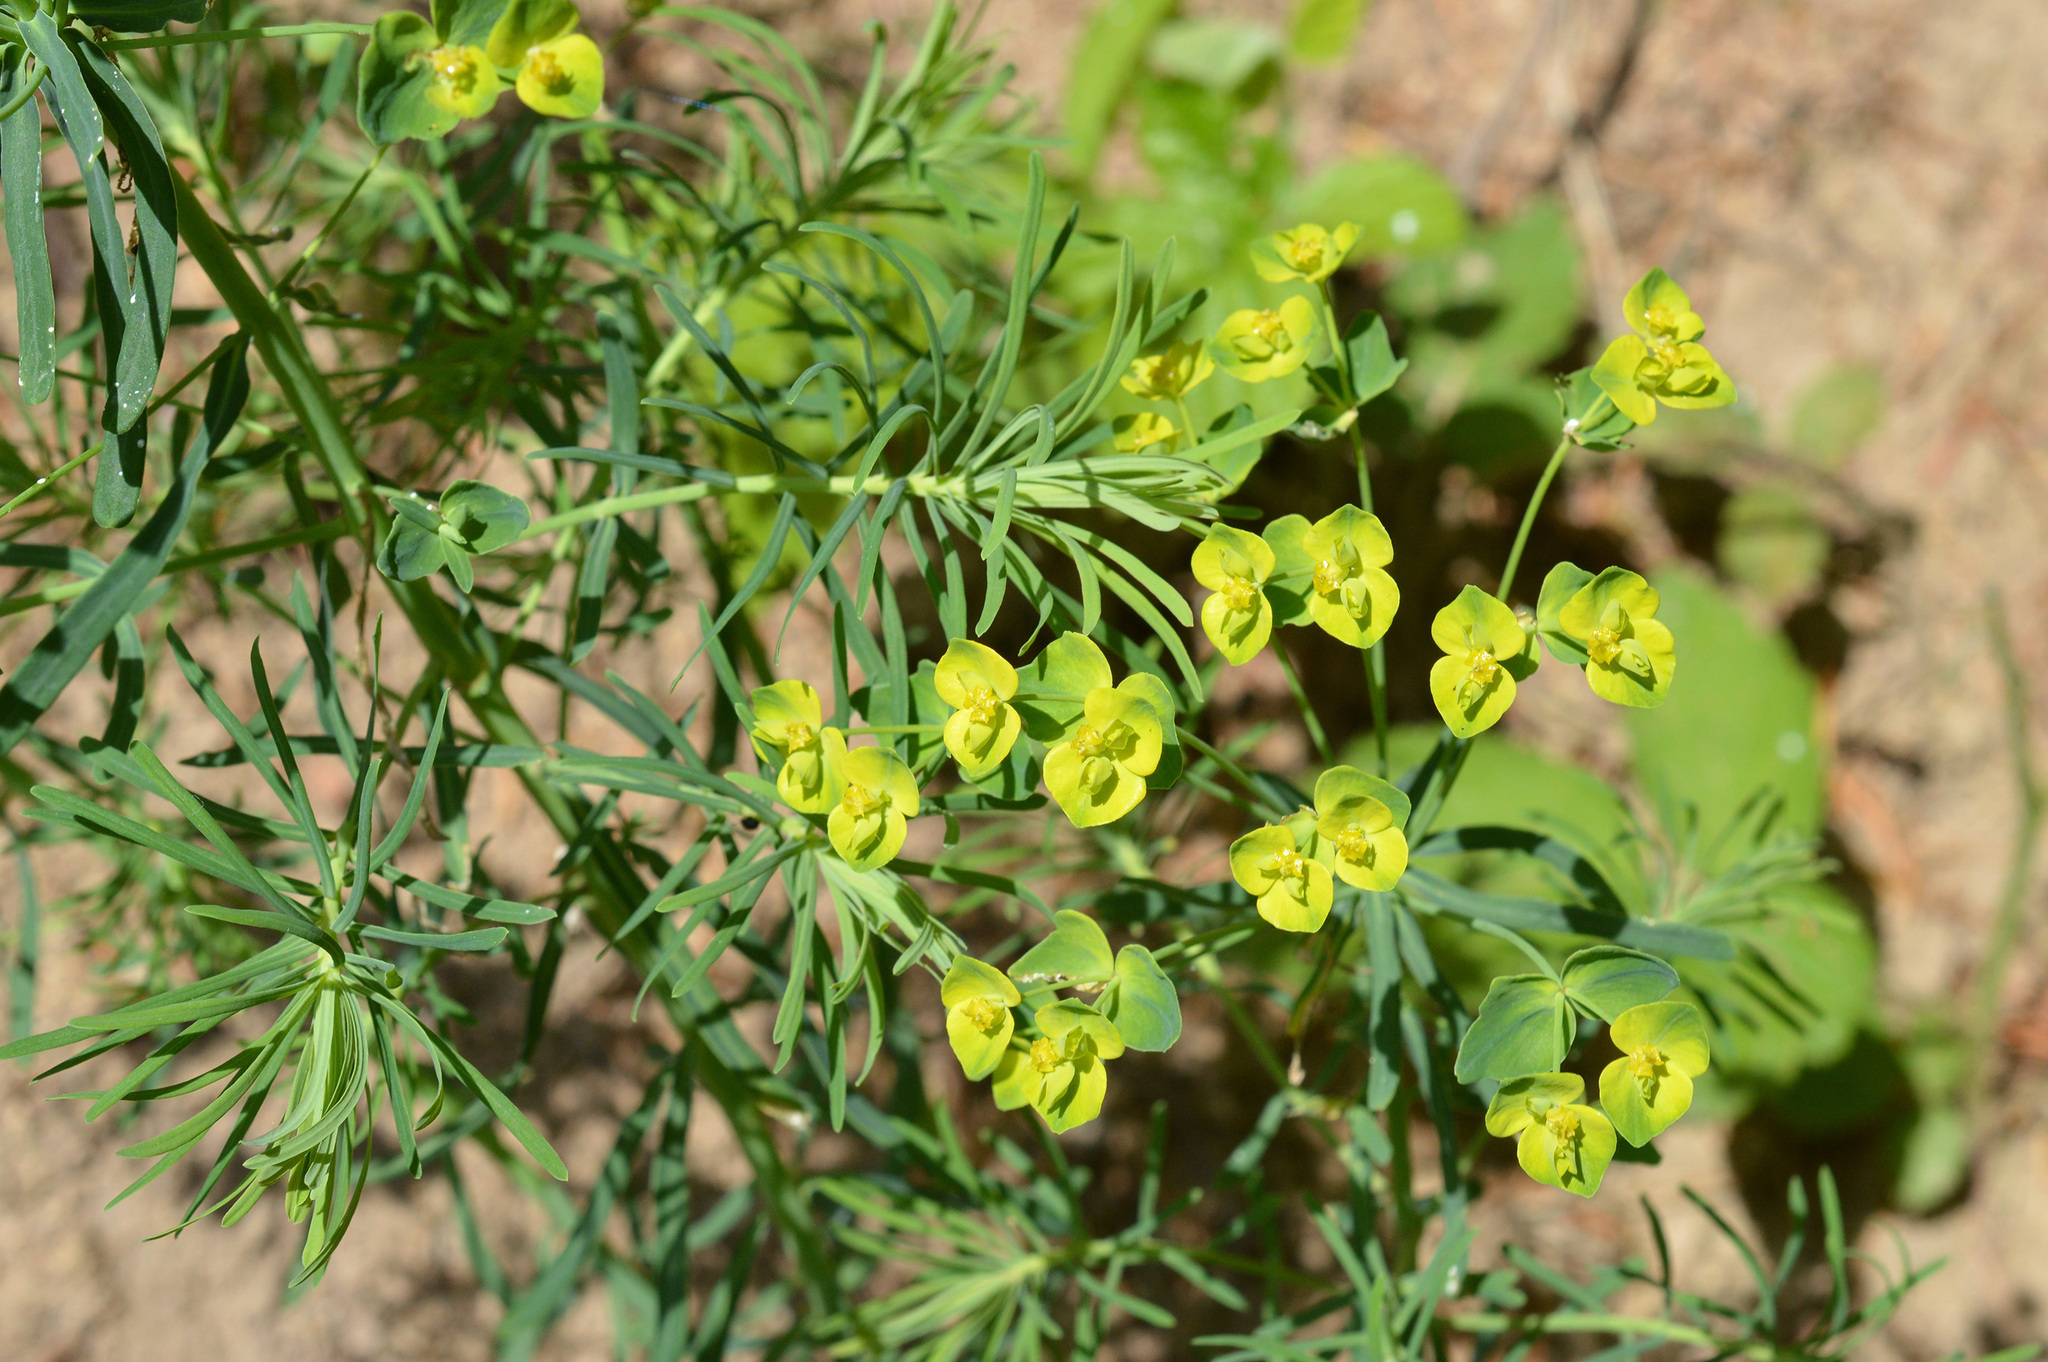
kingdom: Plantae
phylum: Tracheophyta
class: Magnoliopsida
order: Malpighiales
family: Euphorbiaceae
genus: Euphorbia
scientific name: Euphorbia cyparissias
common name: Cypress spurge
